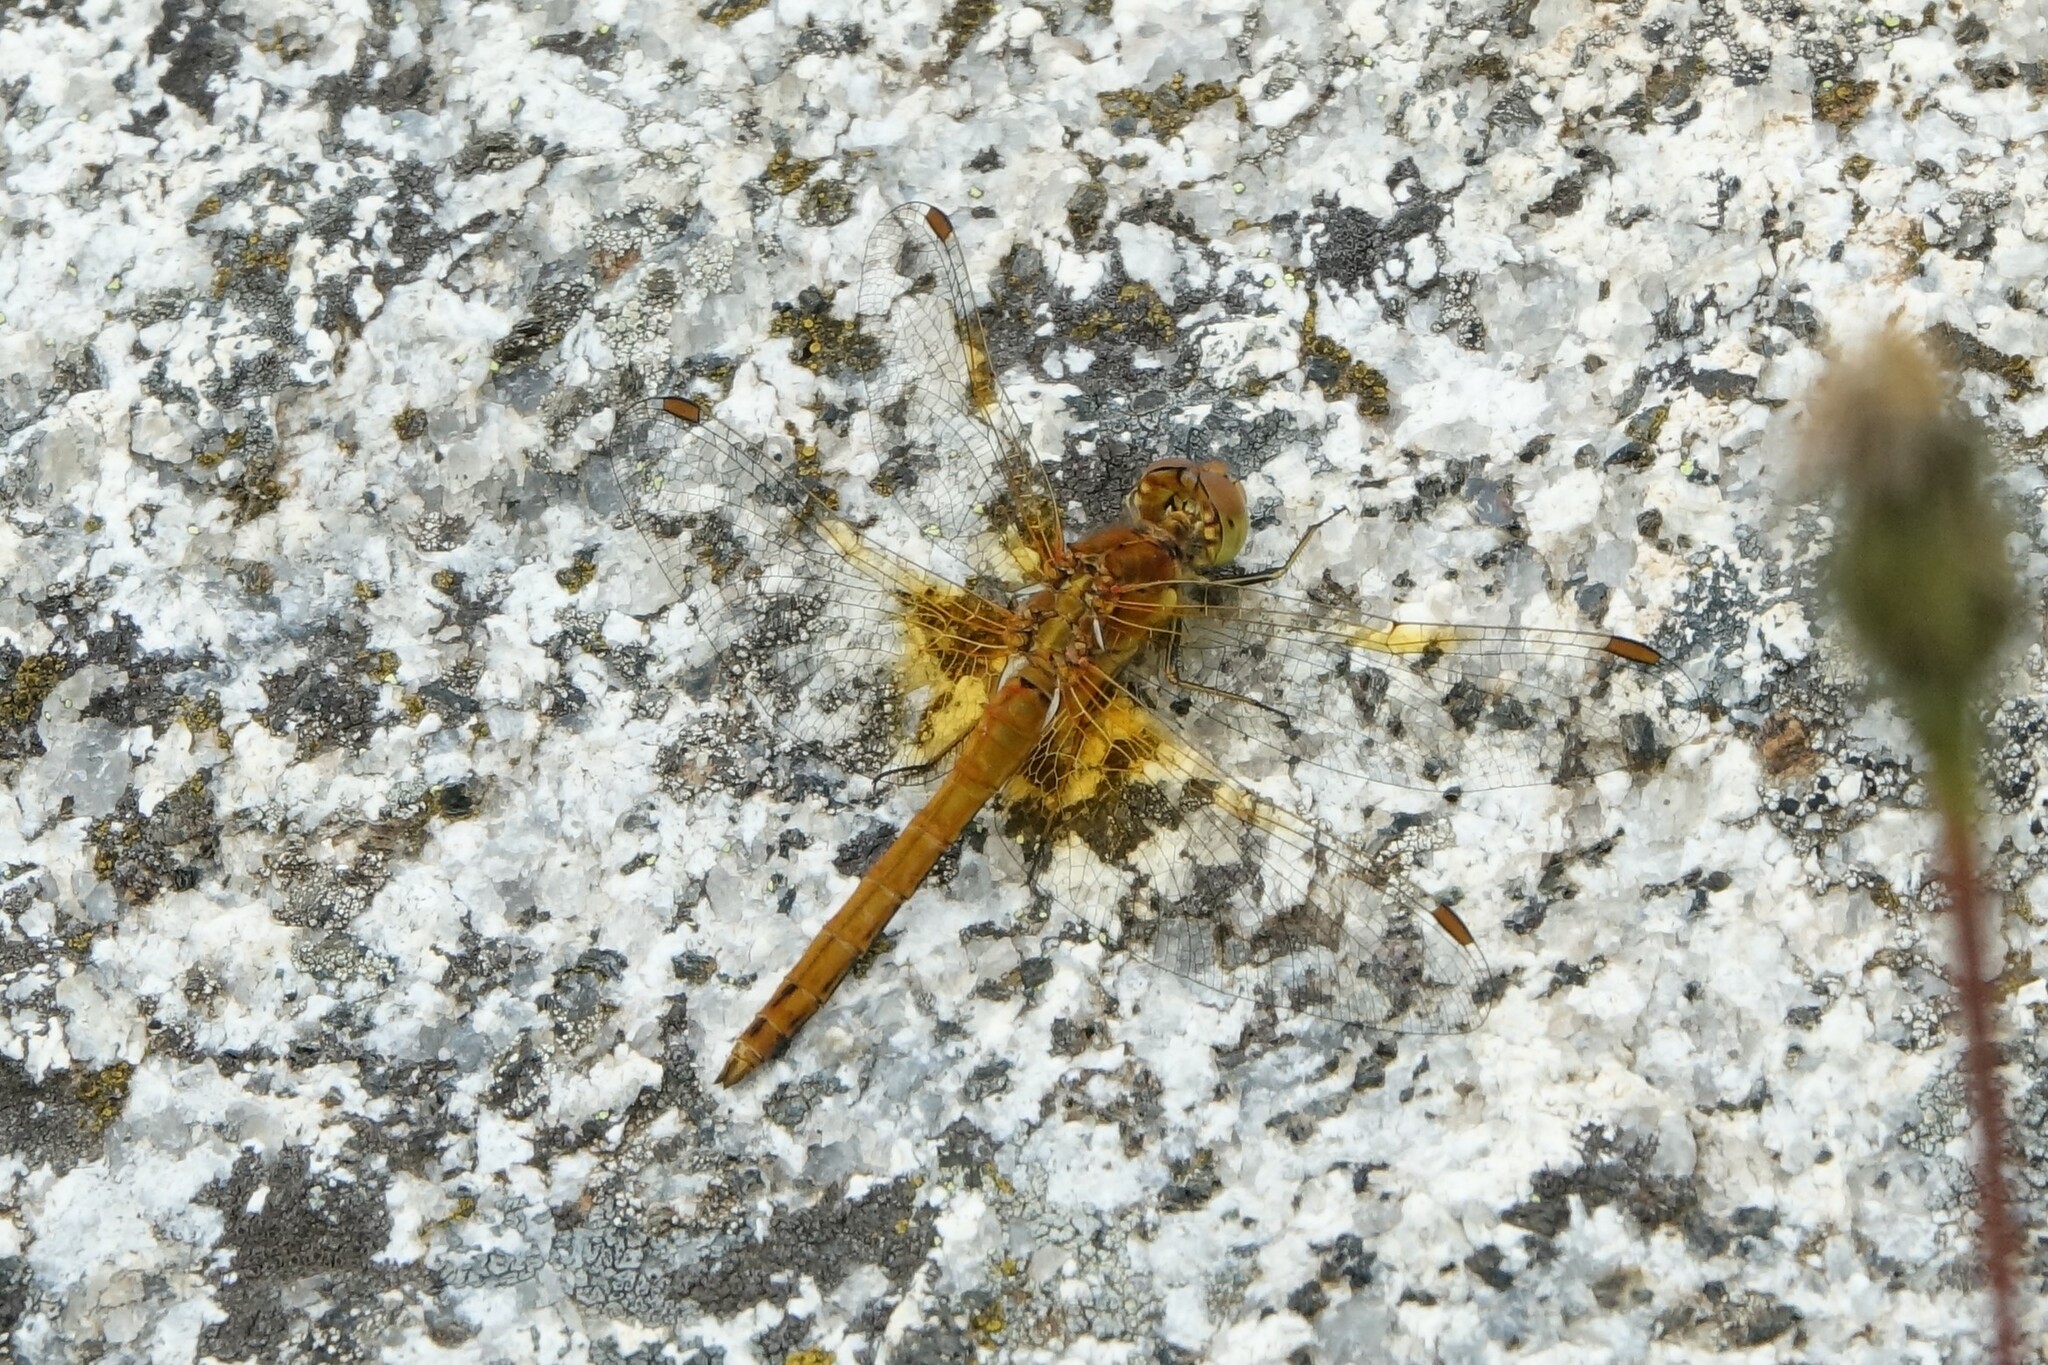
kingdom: Animalia
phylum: Arthropoda
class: Insecta
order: Odonata
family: Libellulidae
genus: Sympetrum
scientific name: Sympetrum flaveolum
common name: Yellow-winged darter
